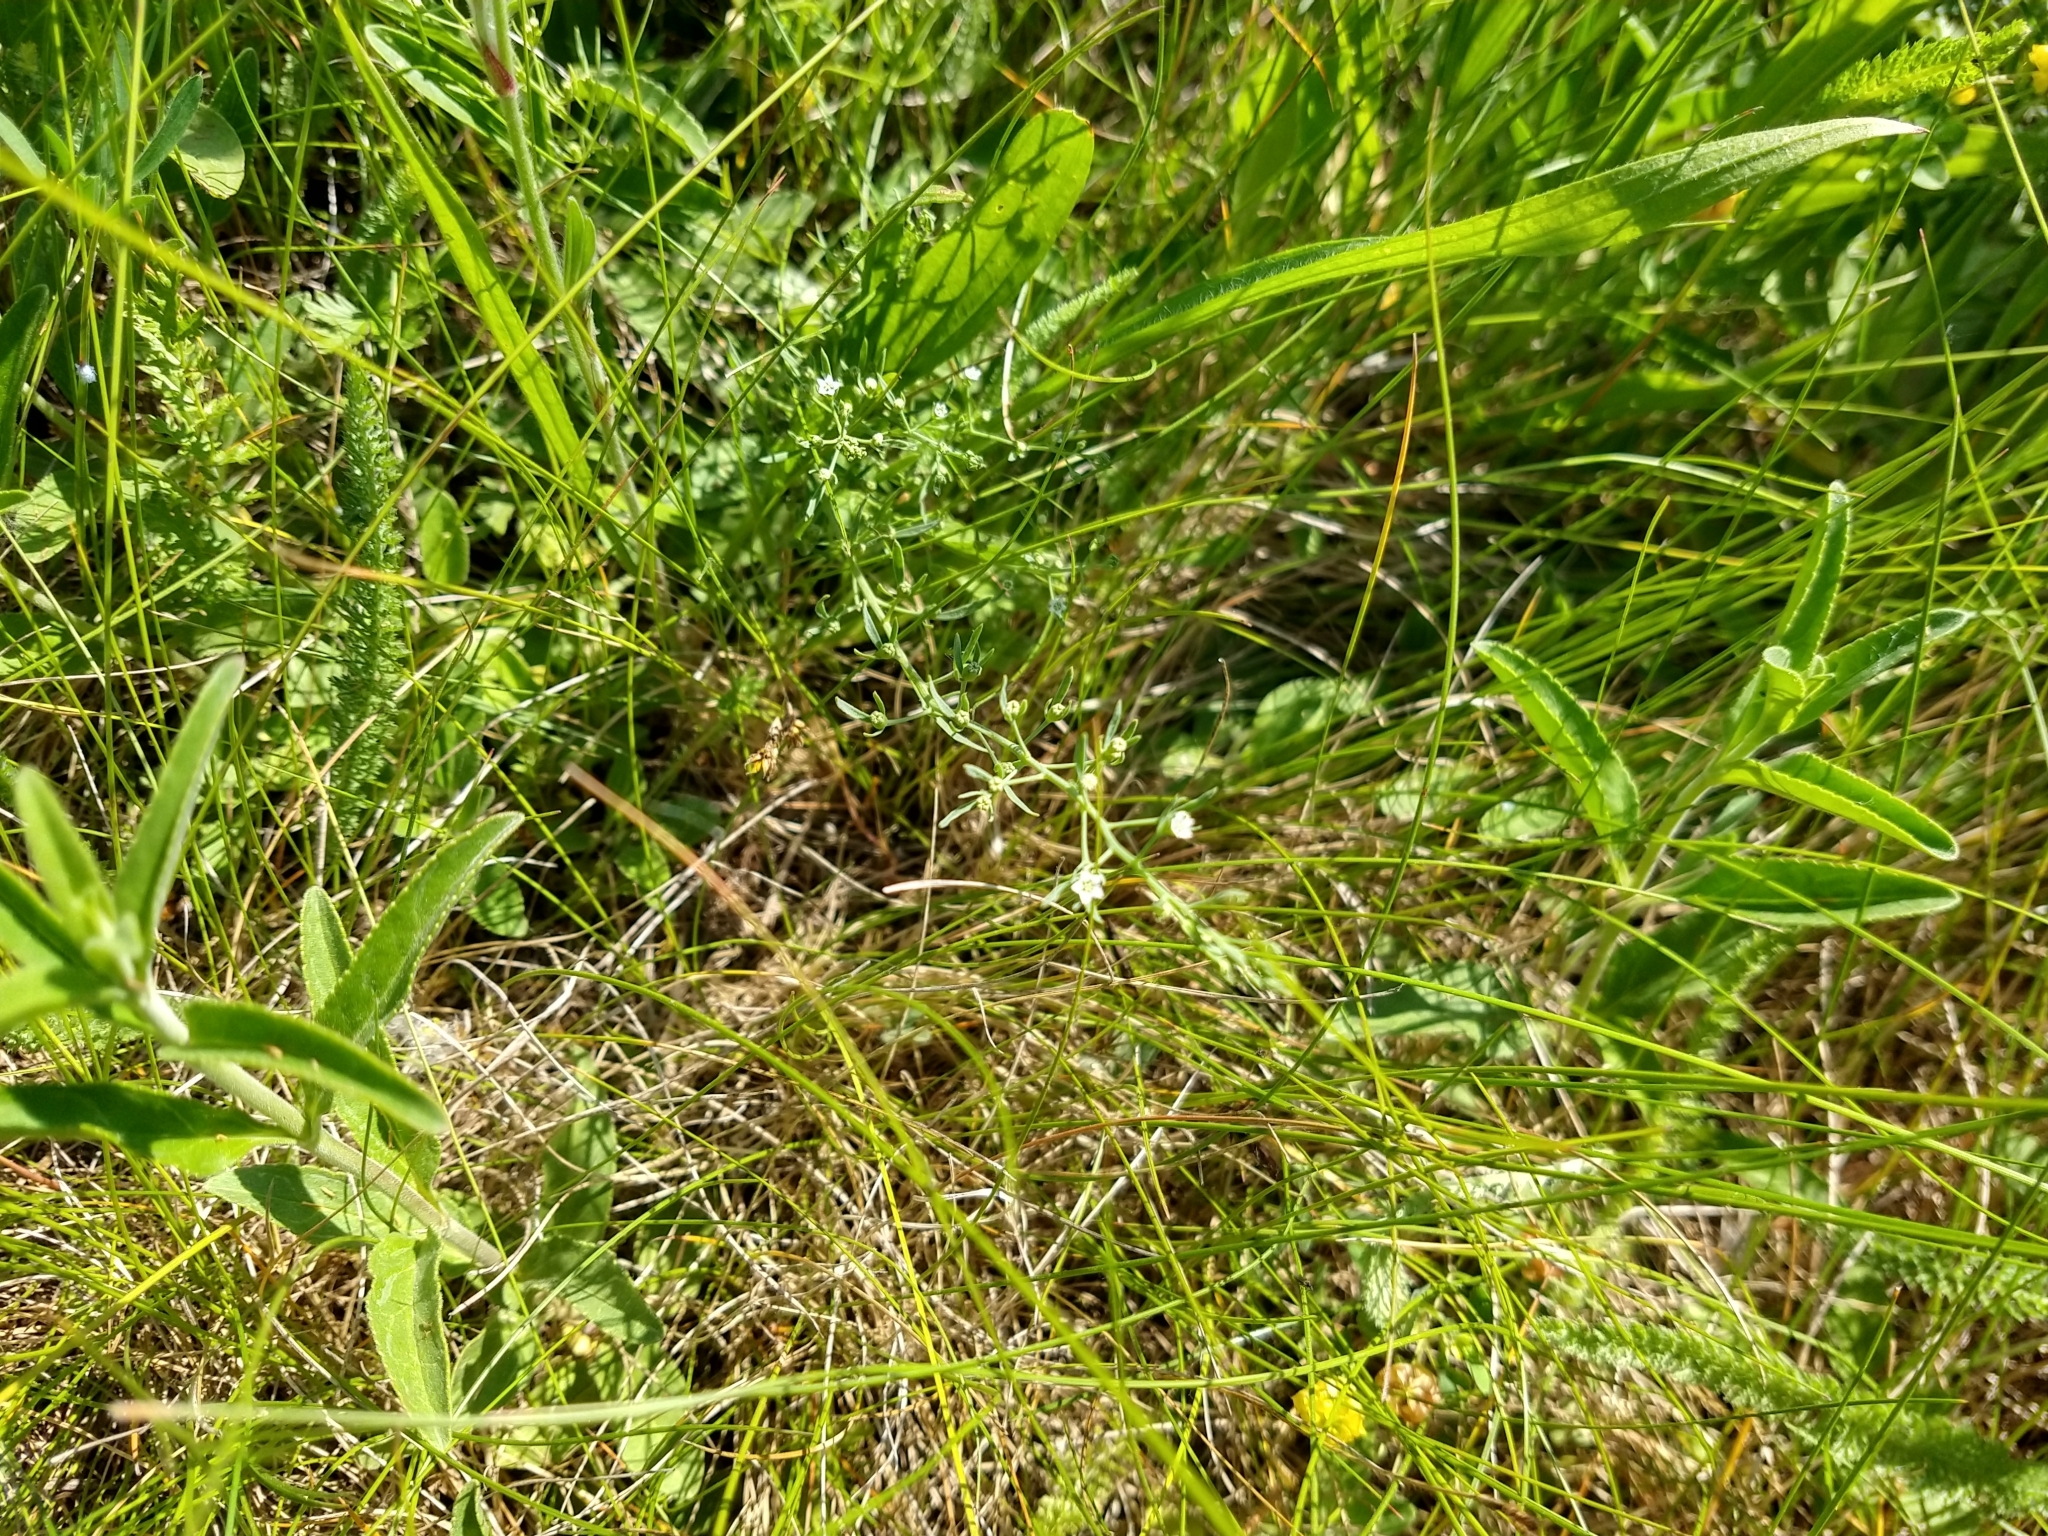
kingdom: Plantae
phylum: Tracheophyta
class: Magnoliopsida
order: Santalales
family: Thesiaceae
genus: Thesium
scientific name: Thesium ramosum
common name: Field thesium
